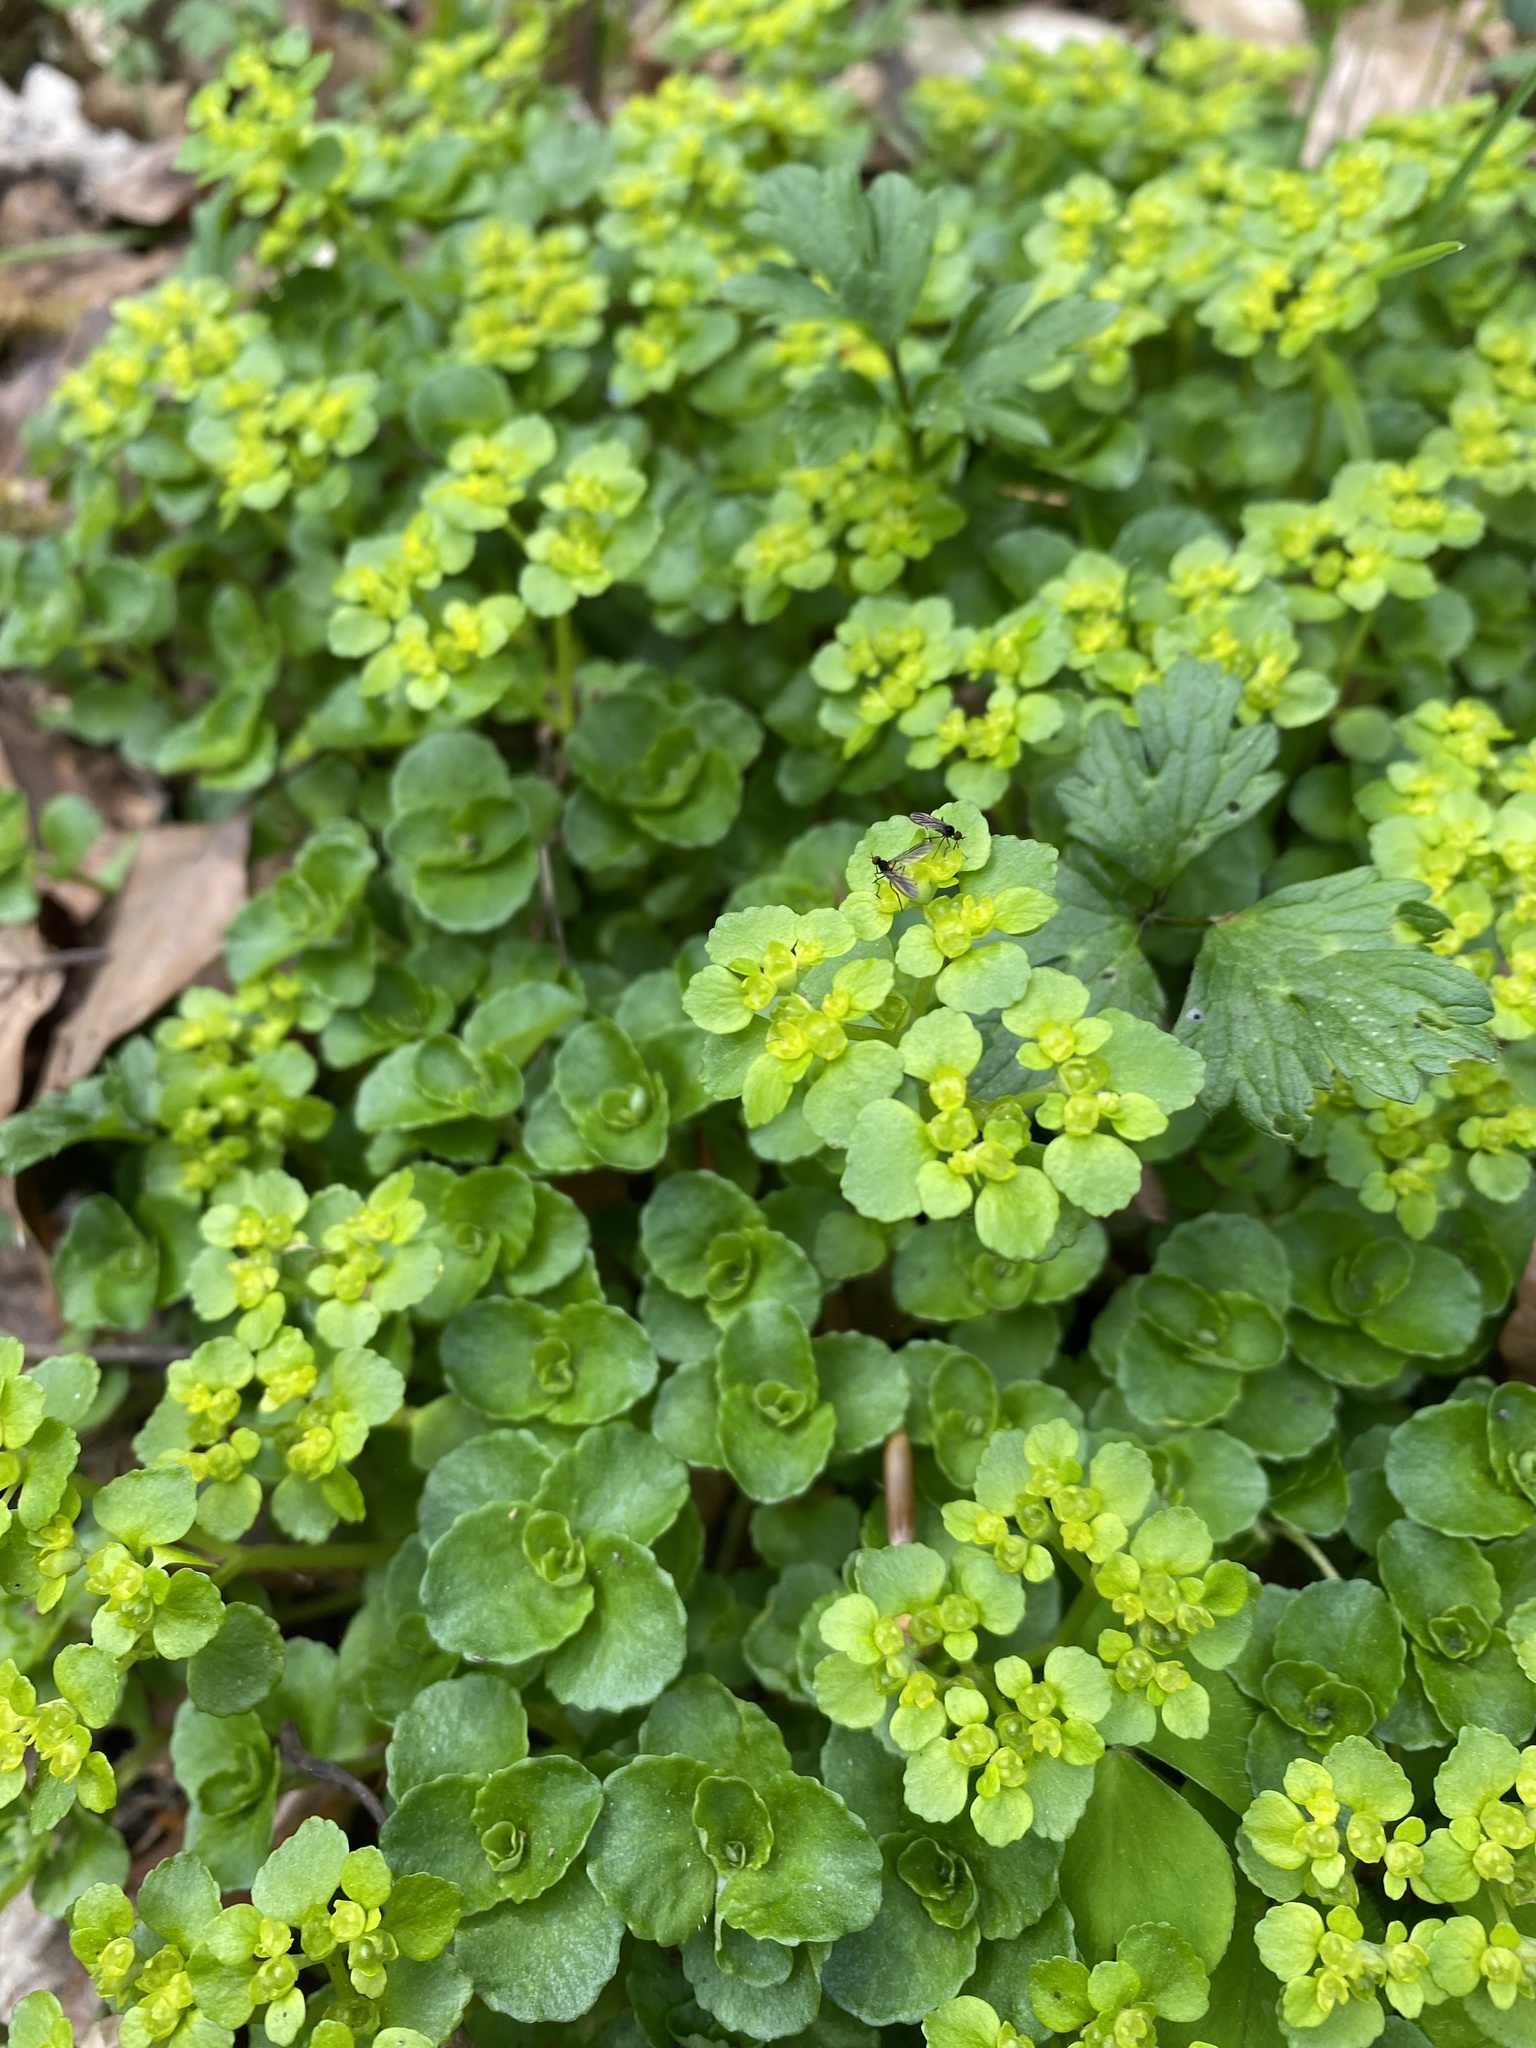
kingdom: Plantae
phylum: Tracheophyta
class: Magnoliopsida
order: Saxifragales
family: Saxifragaceae
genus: Chrysosplenium
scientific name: Chrysosplenium oppositifolium
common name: Opposite-leaved golden-saxifrage
